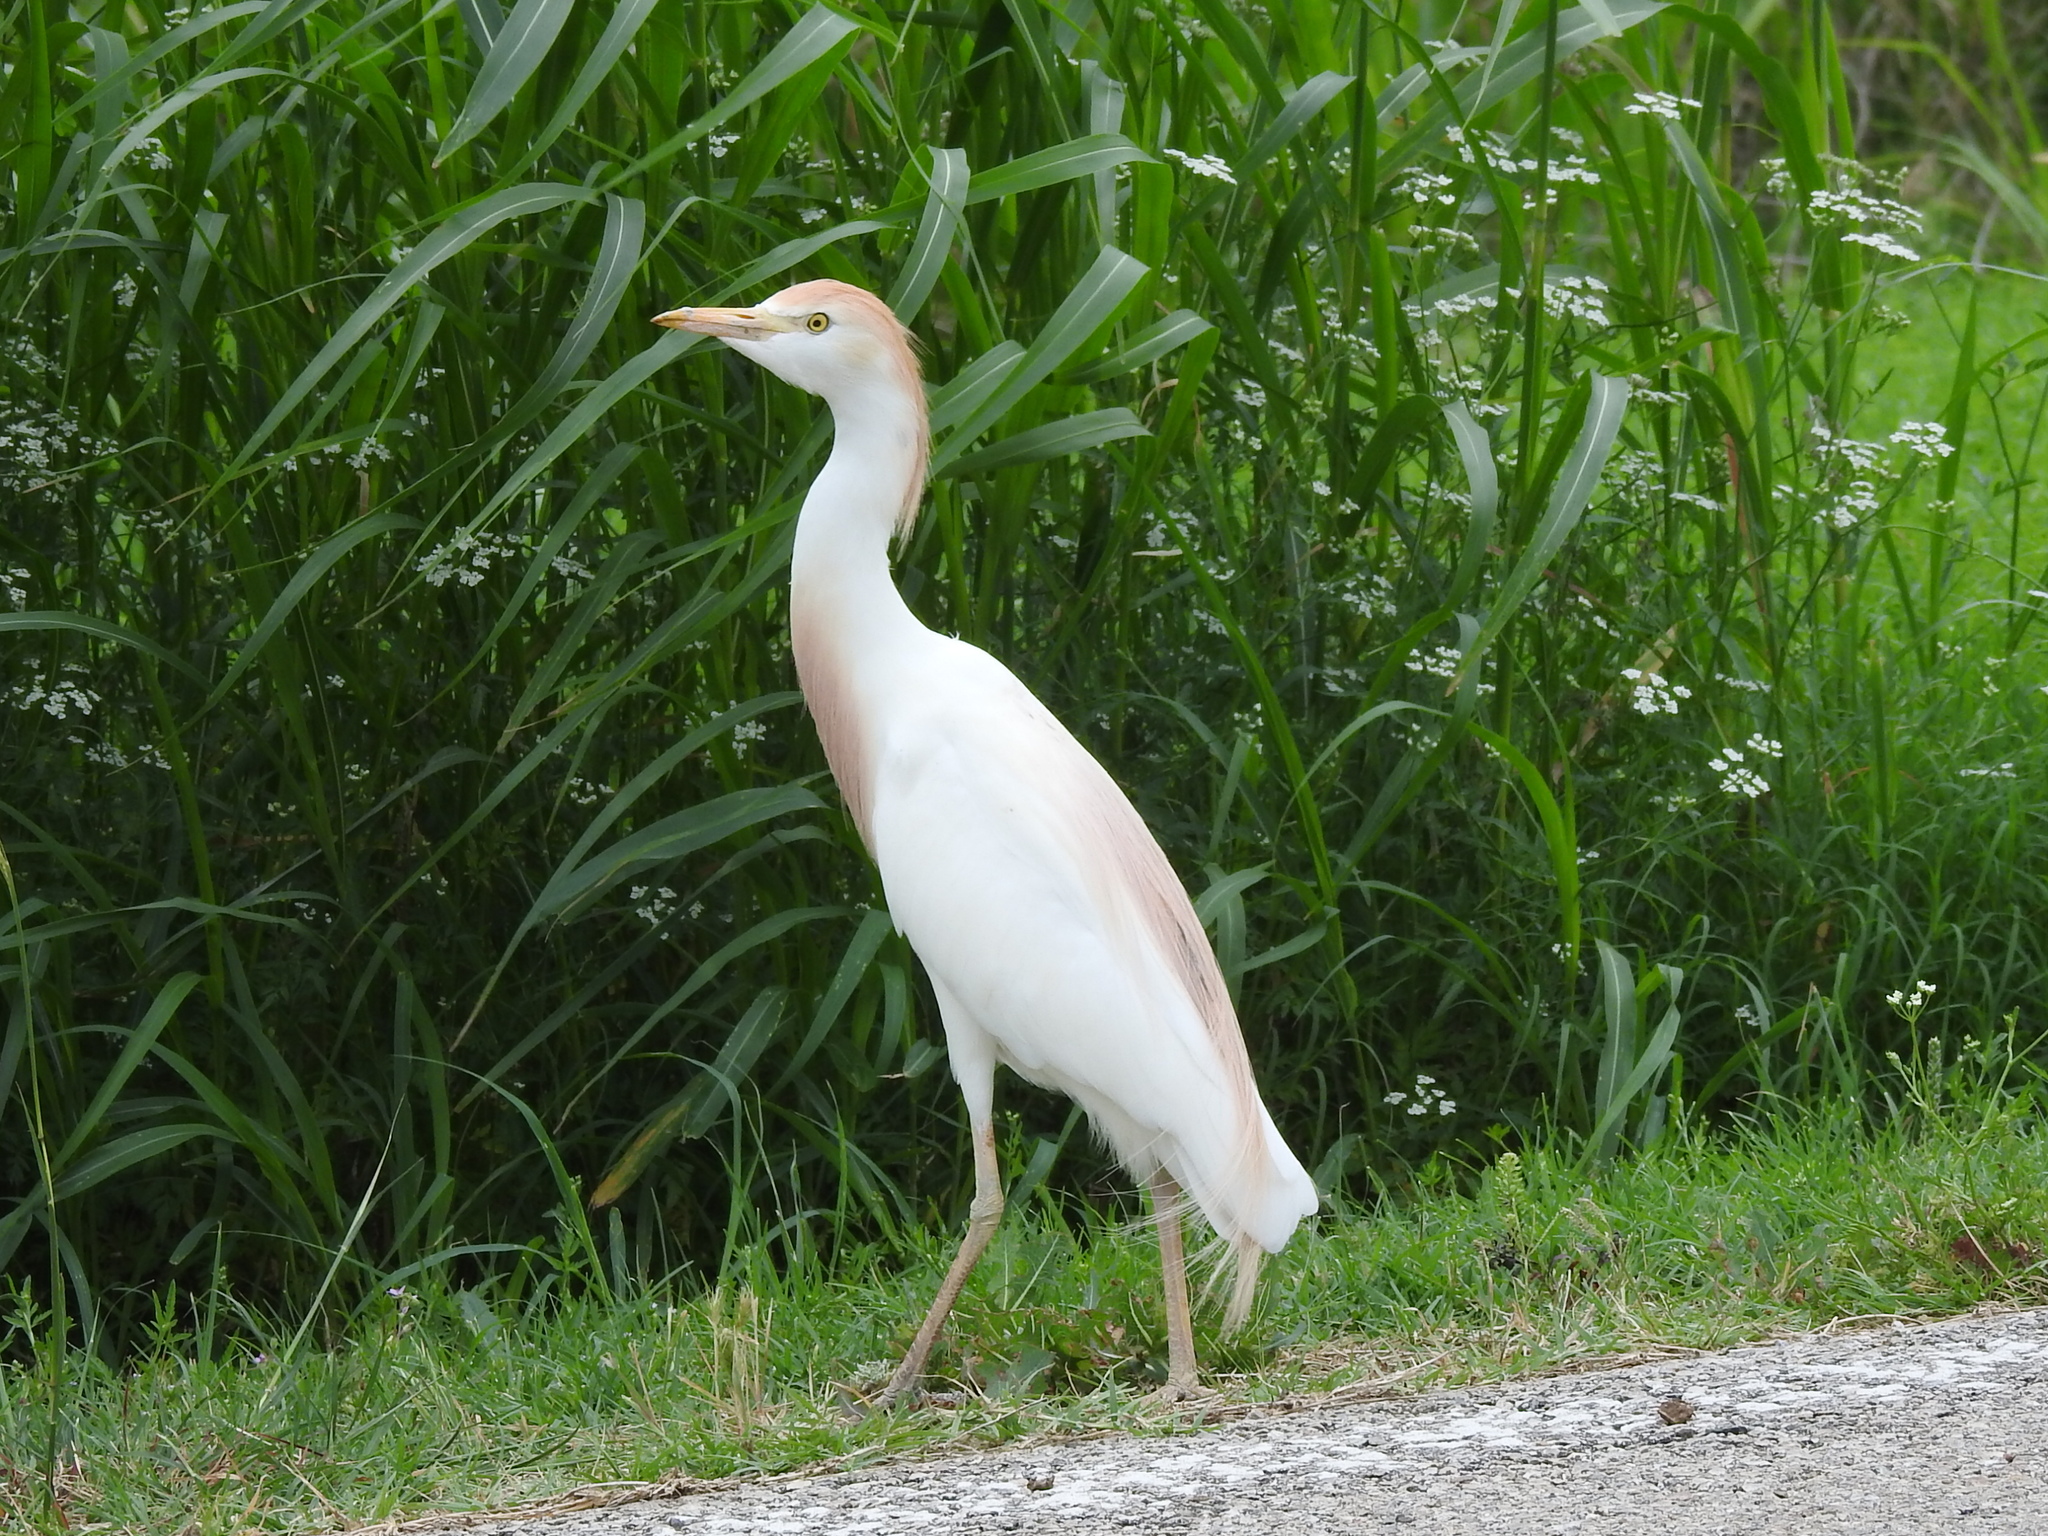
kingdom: Animalia
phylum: Chordata
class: Aves
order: Pelecaniformes
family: Ardeidae
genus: Bubulcus
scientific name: Bubulcus ibis
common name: Cattle egret
